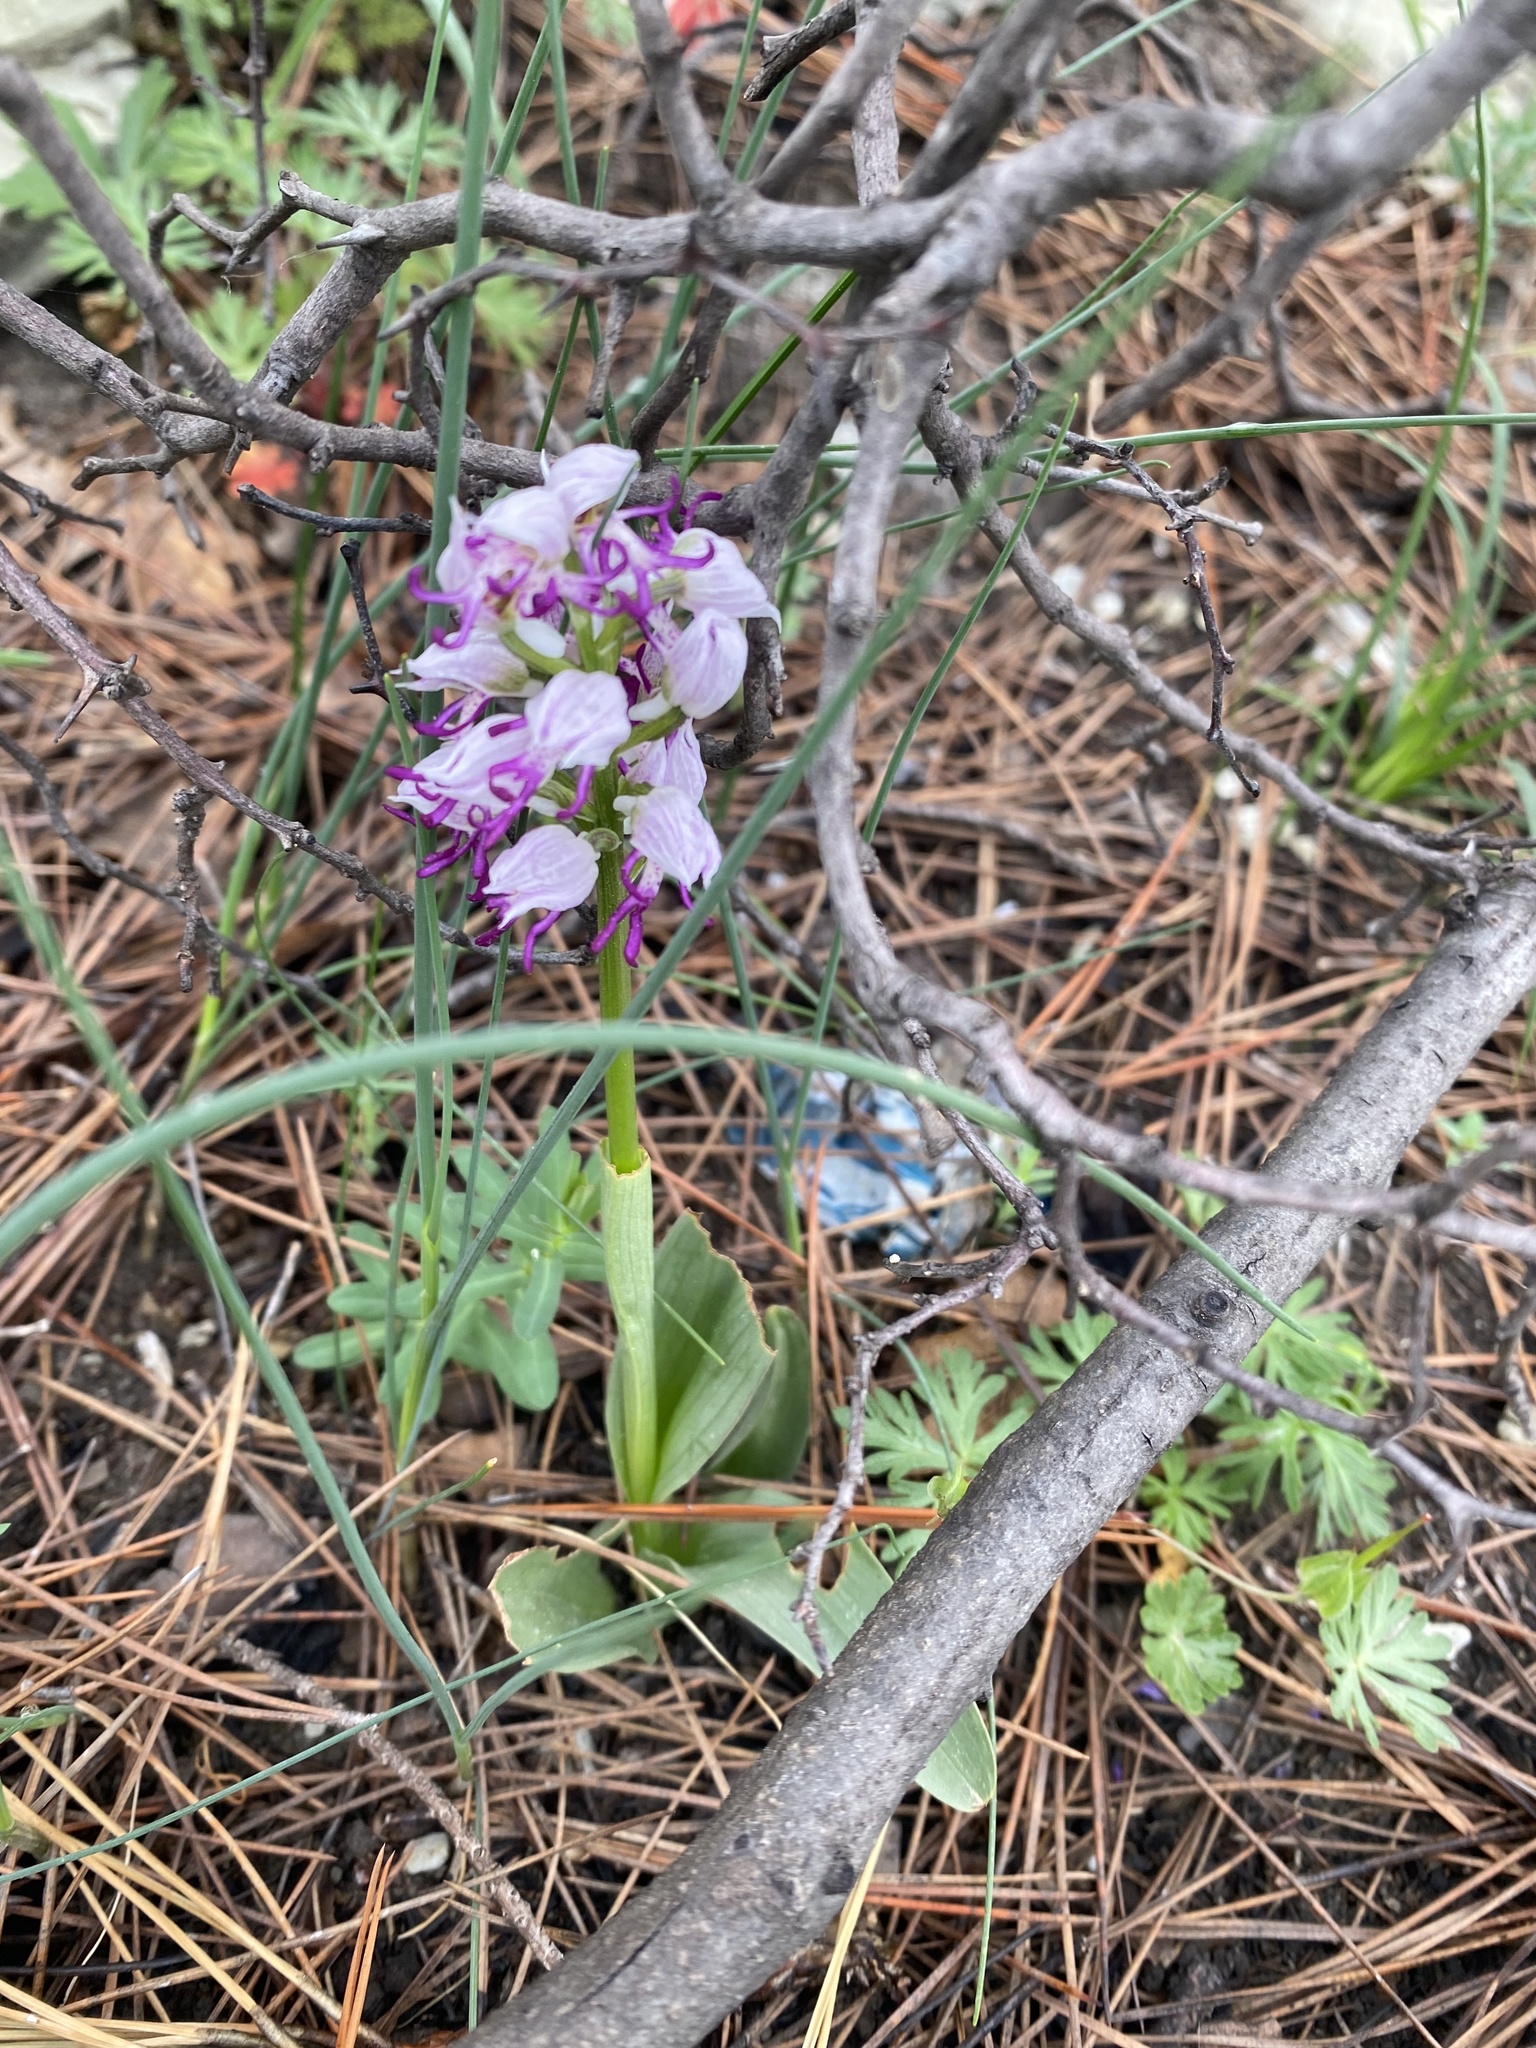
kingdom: Plantae
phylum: Tracheophyta
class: Liliopsida
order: Asparagales
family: Orchidaceae
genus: Orchis
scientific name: Orchis simia
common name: Monkey orchid
